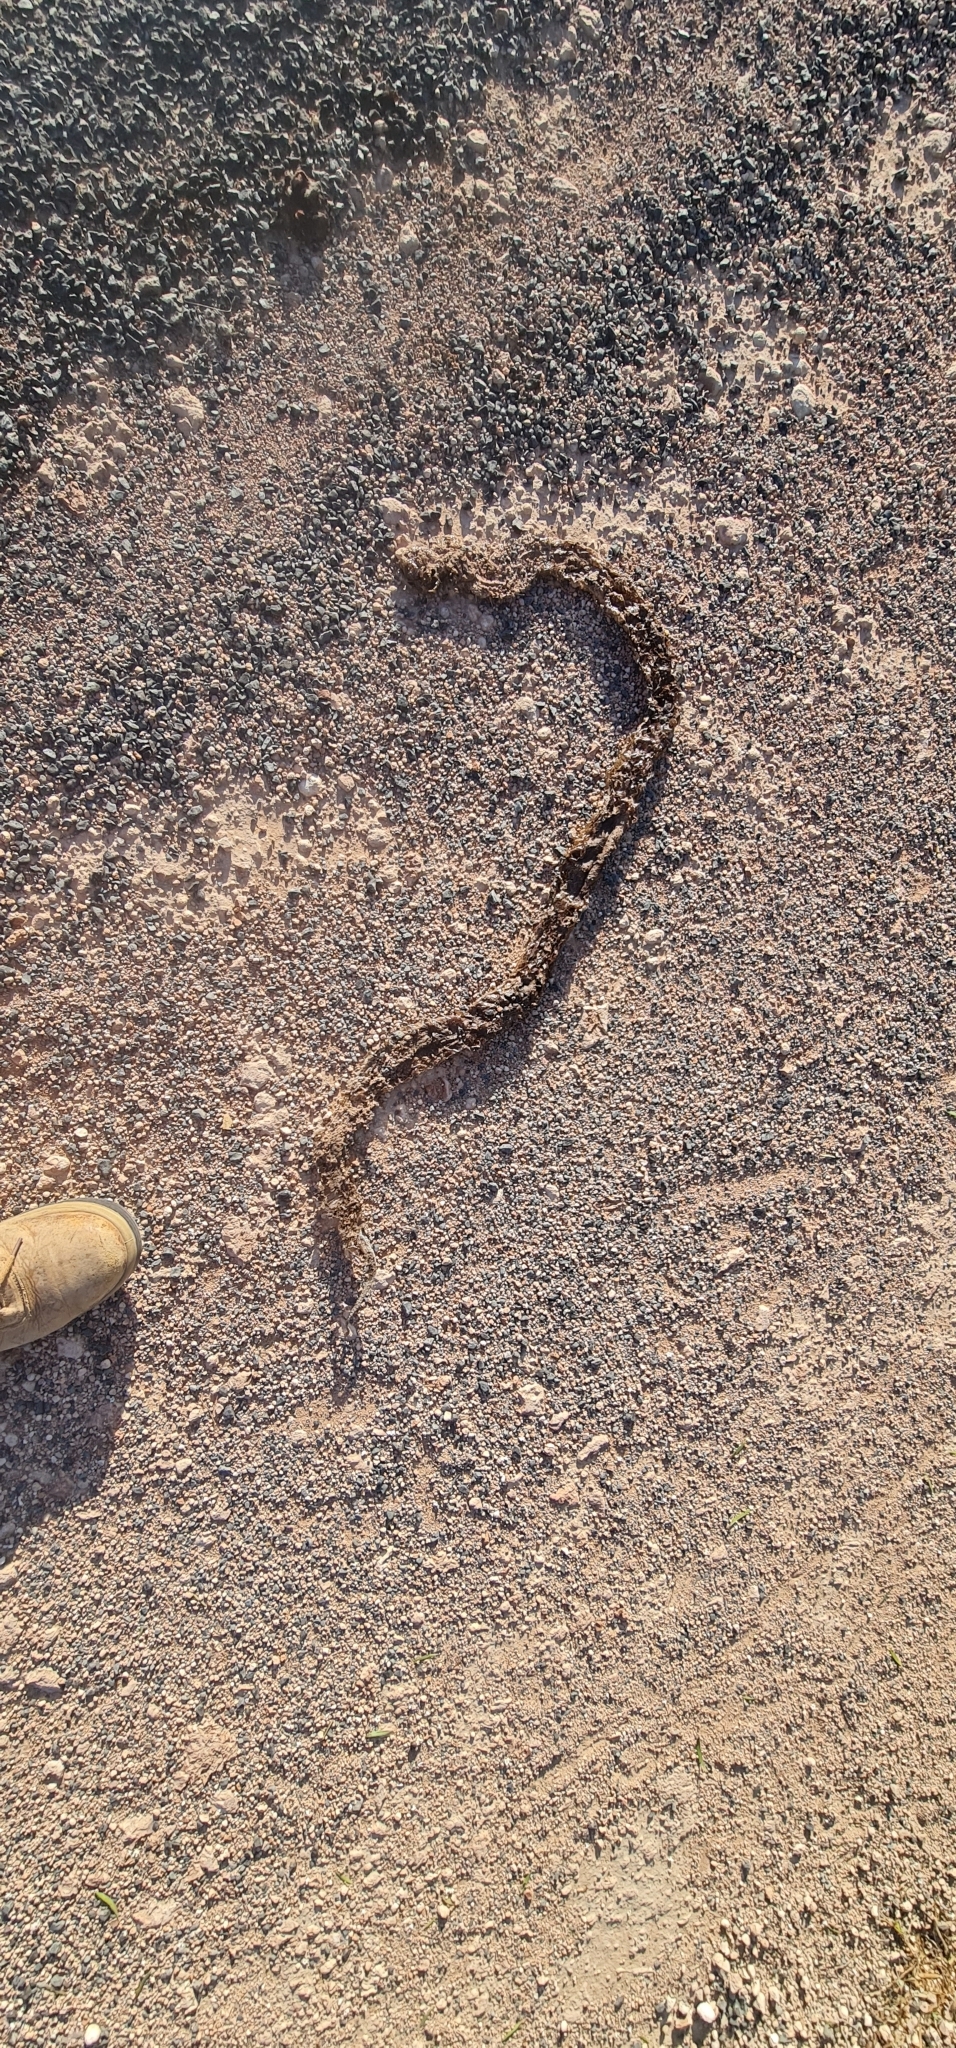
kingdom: Animalia
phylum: Chordata
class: Squamata
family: Elapidae
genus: Pseudonaja
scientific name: Pseudonaja aspidorhyncha
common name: Strap-snouted brown snake
